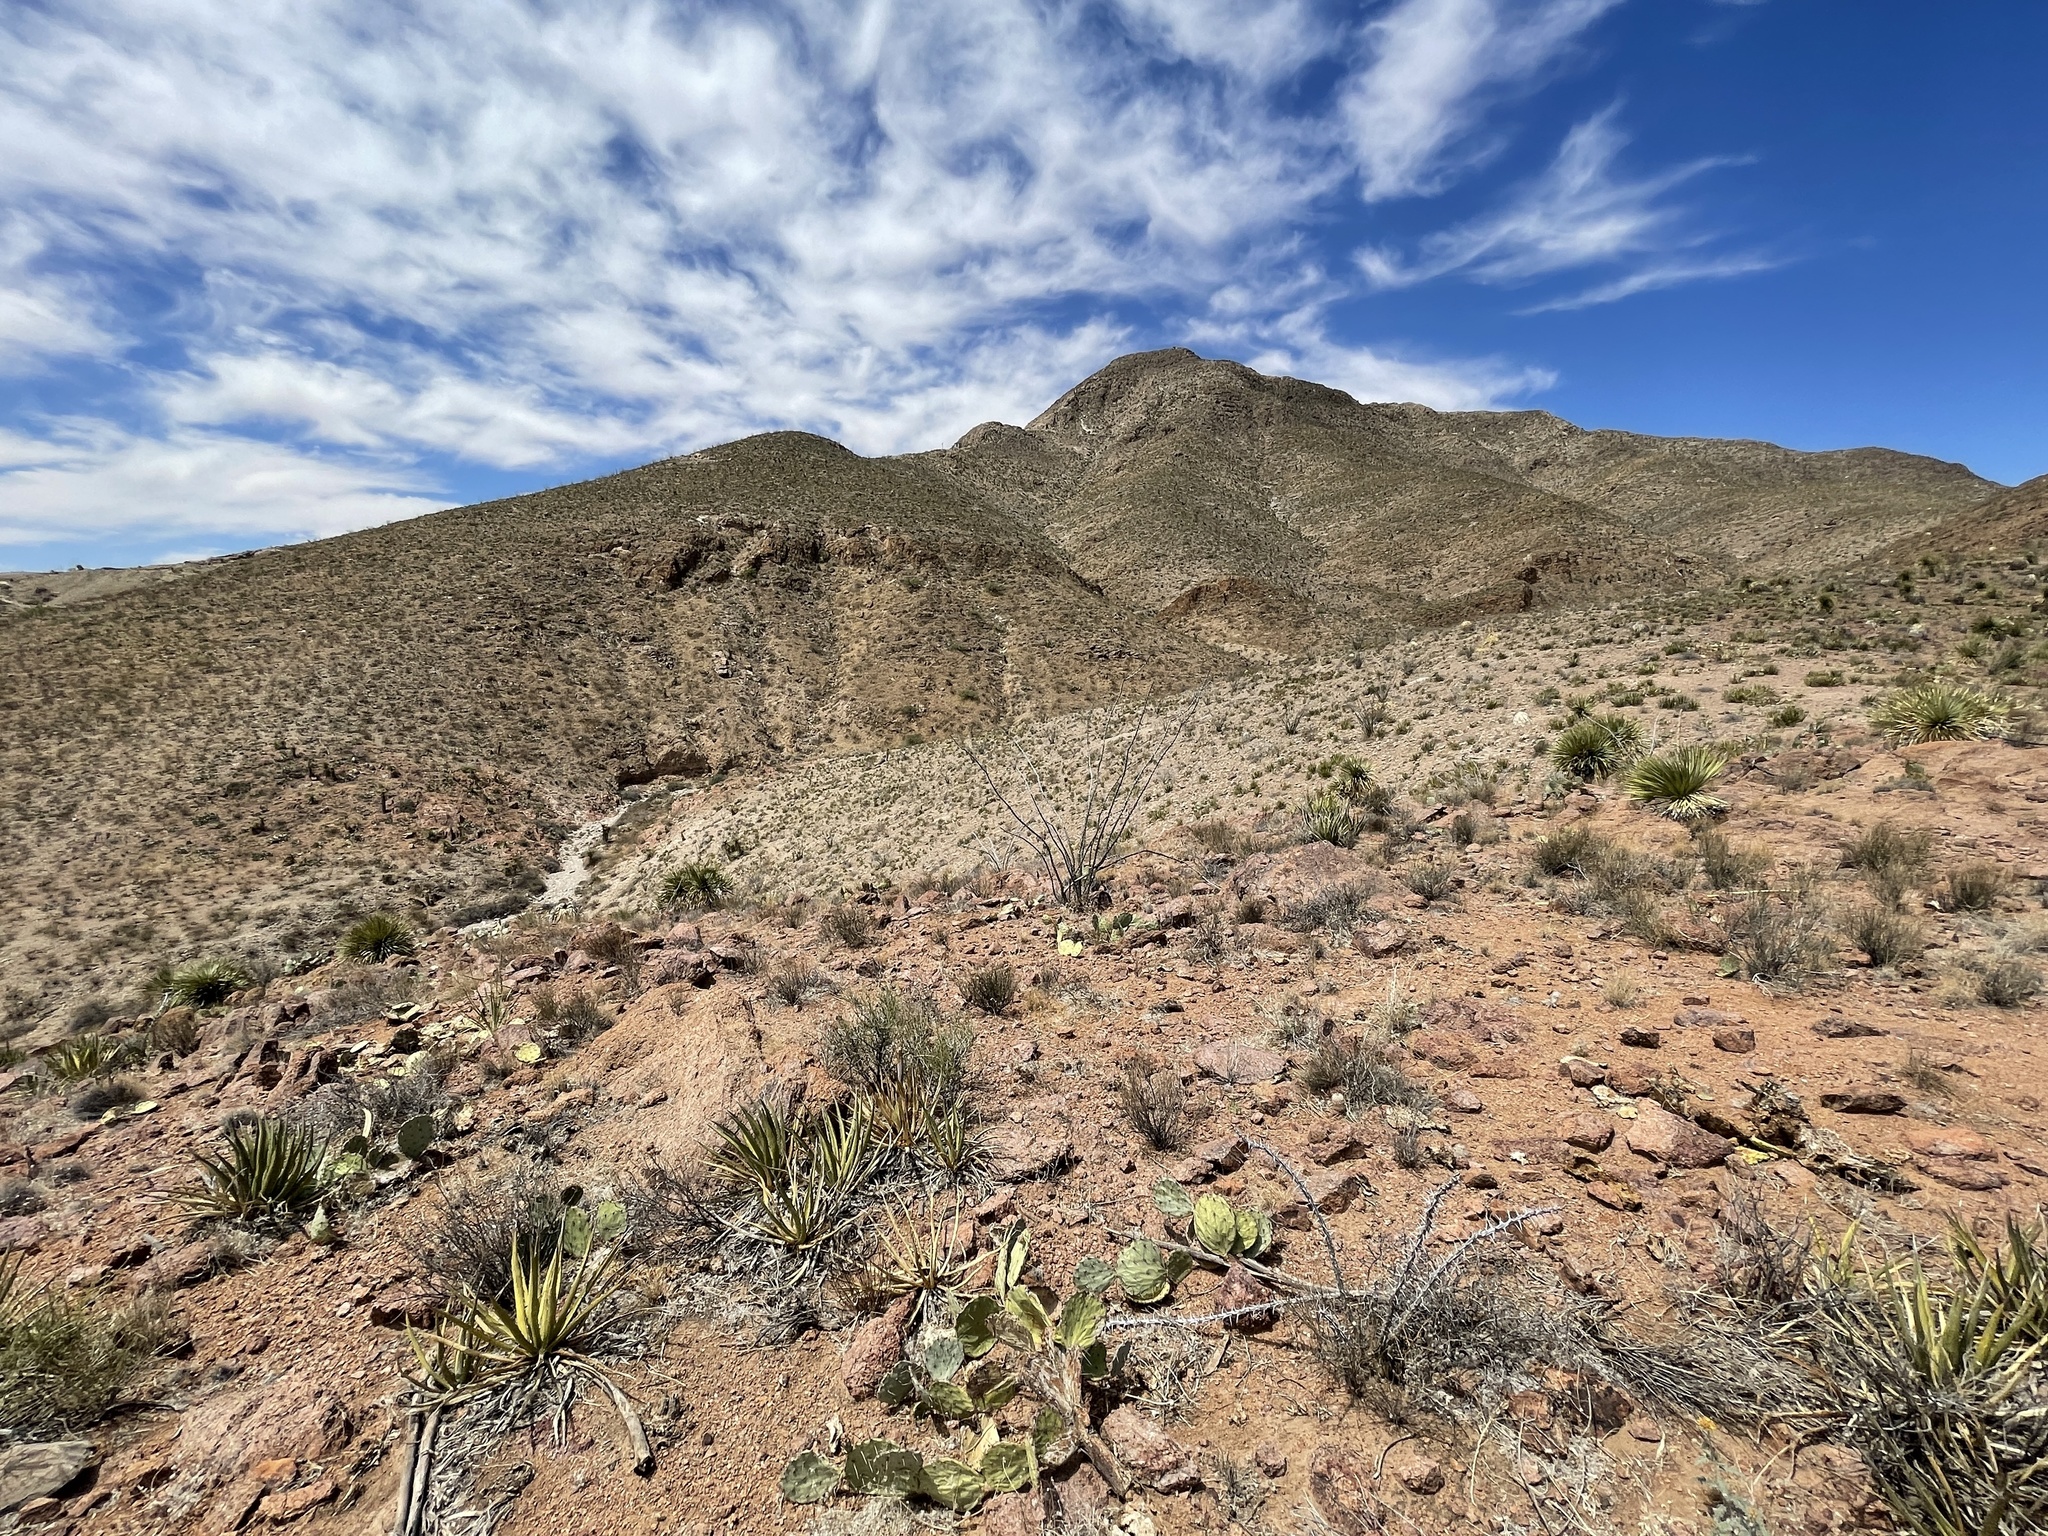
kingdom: Plantae
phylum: Tracheophyta
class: Magnoliopsida
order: Ericales
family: Fouquieriaceae
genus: Fouquieria
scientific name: Fouquieria splendens
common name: Vine-cactus
